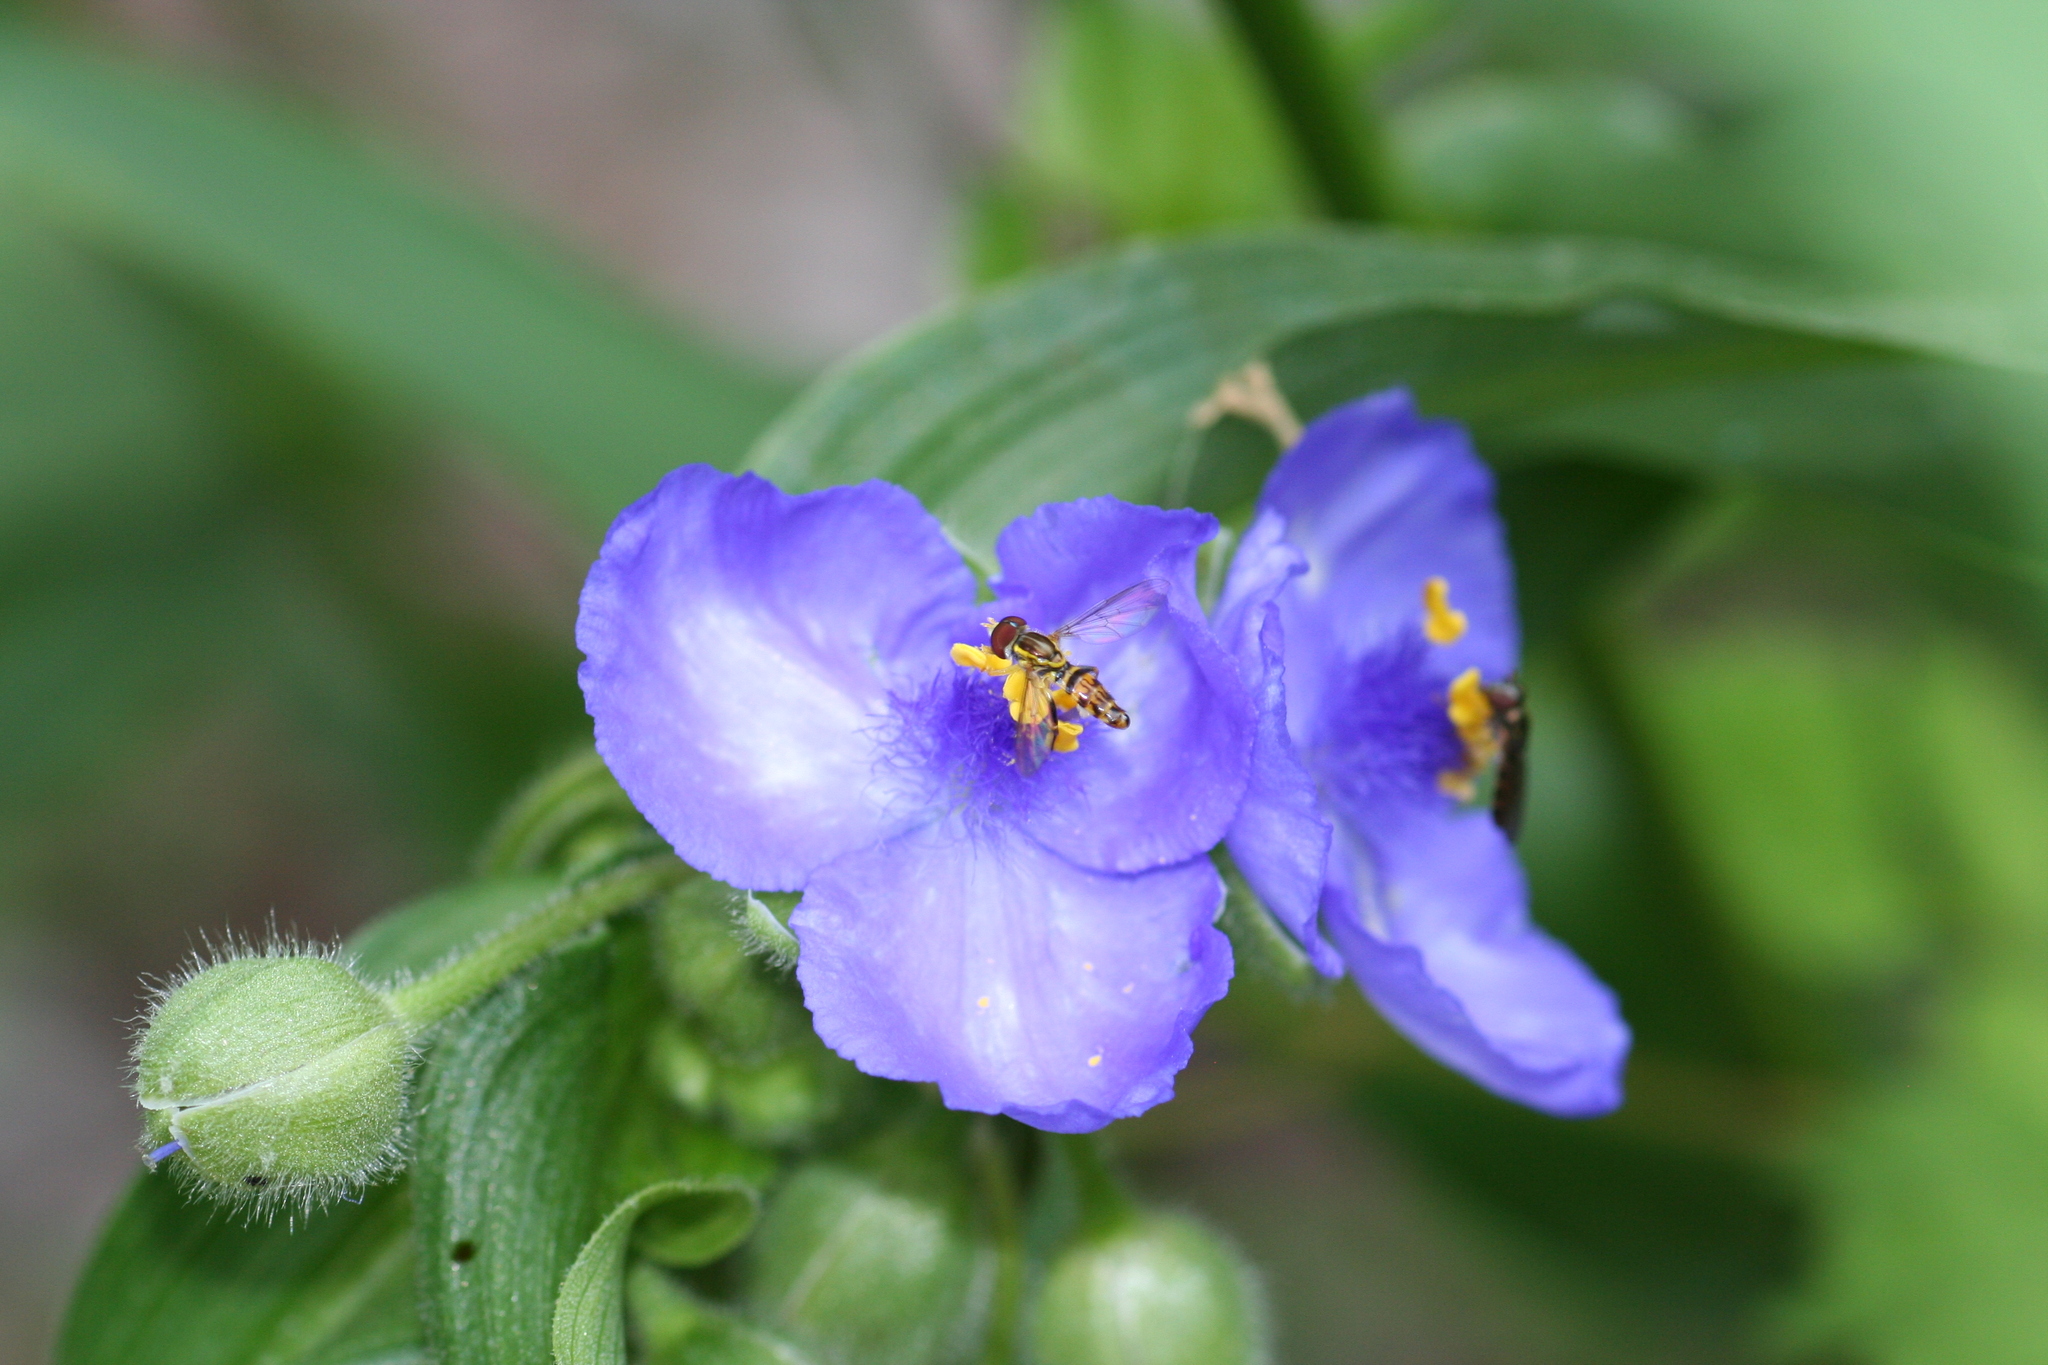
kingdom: Animalia
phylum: Arthropoda
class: Insecta
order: Diptera
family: Syrphidae
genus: Toxomerus
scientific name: Toxomerus geminatus
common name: Eastern calligrapher
